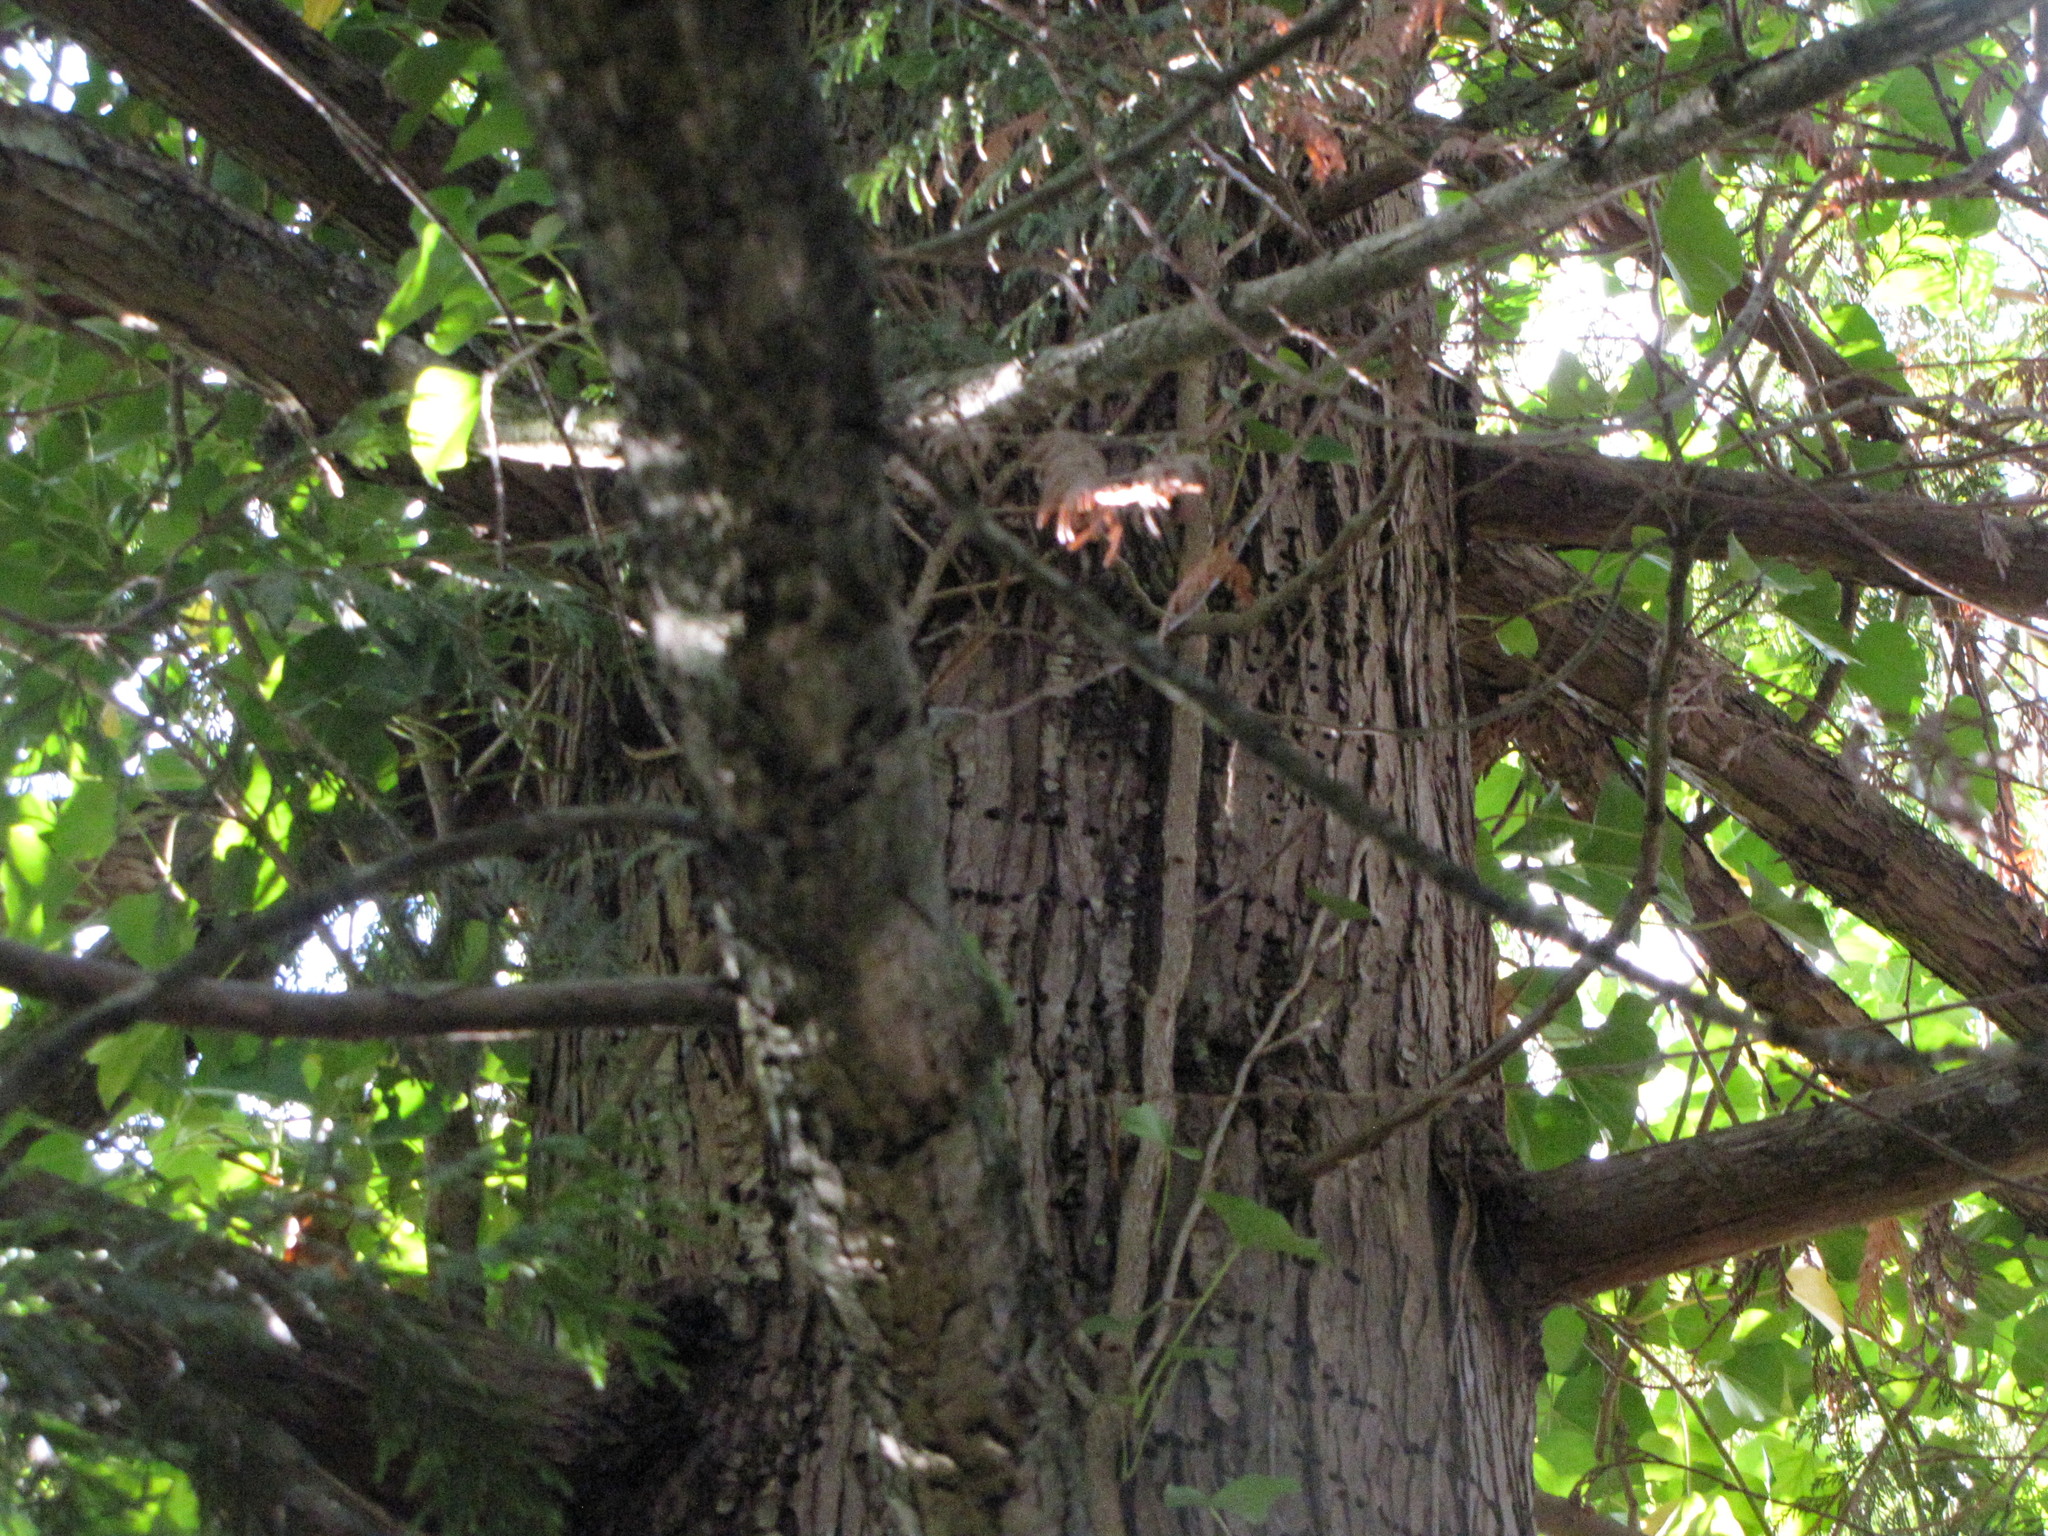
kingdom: Animalia
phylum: Chordata
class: Aves
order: Piciformes
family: Picidae
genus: Sphyrapicus
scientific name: Sphyrapicus ruber
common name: Red-breasted sapsucker
